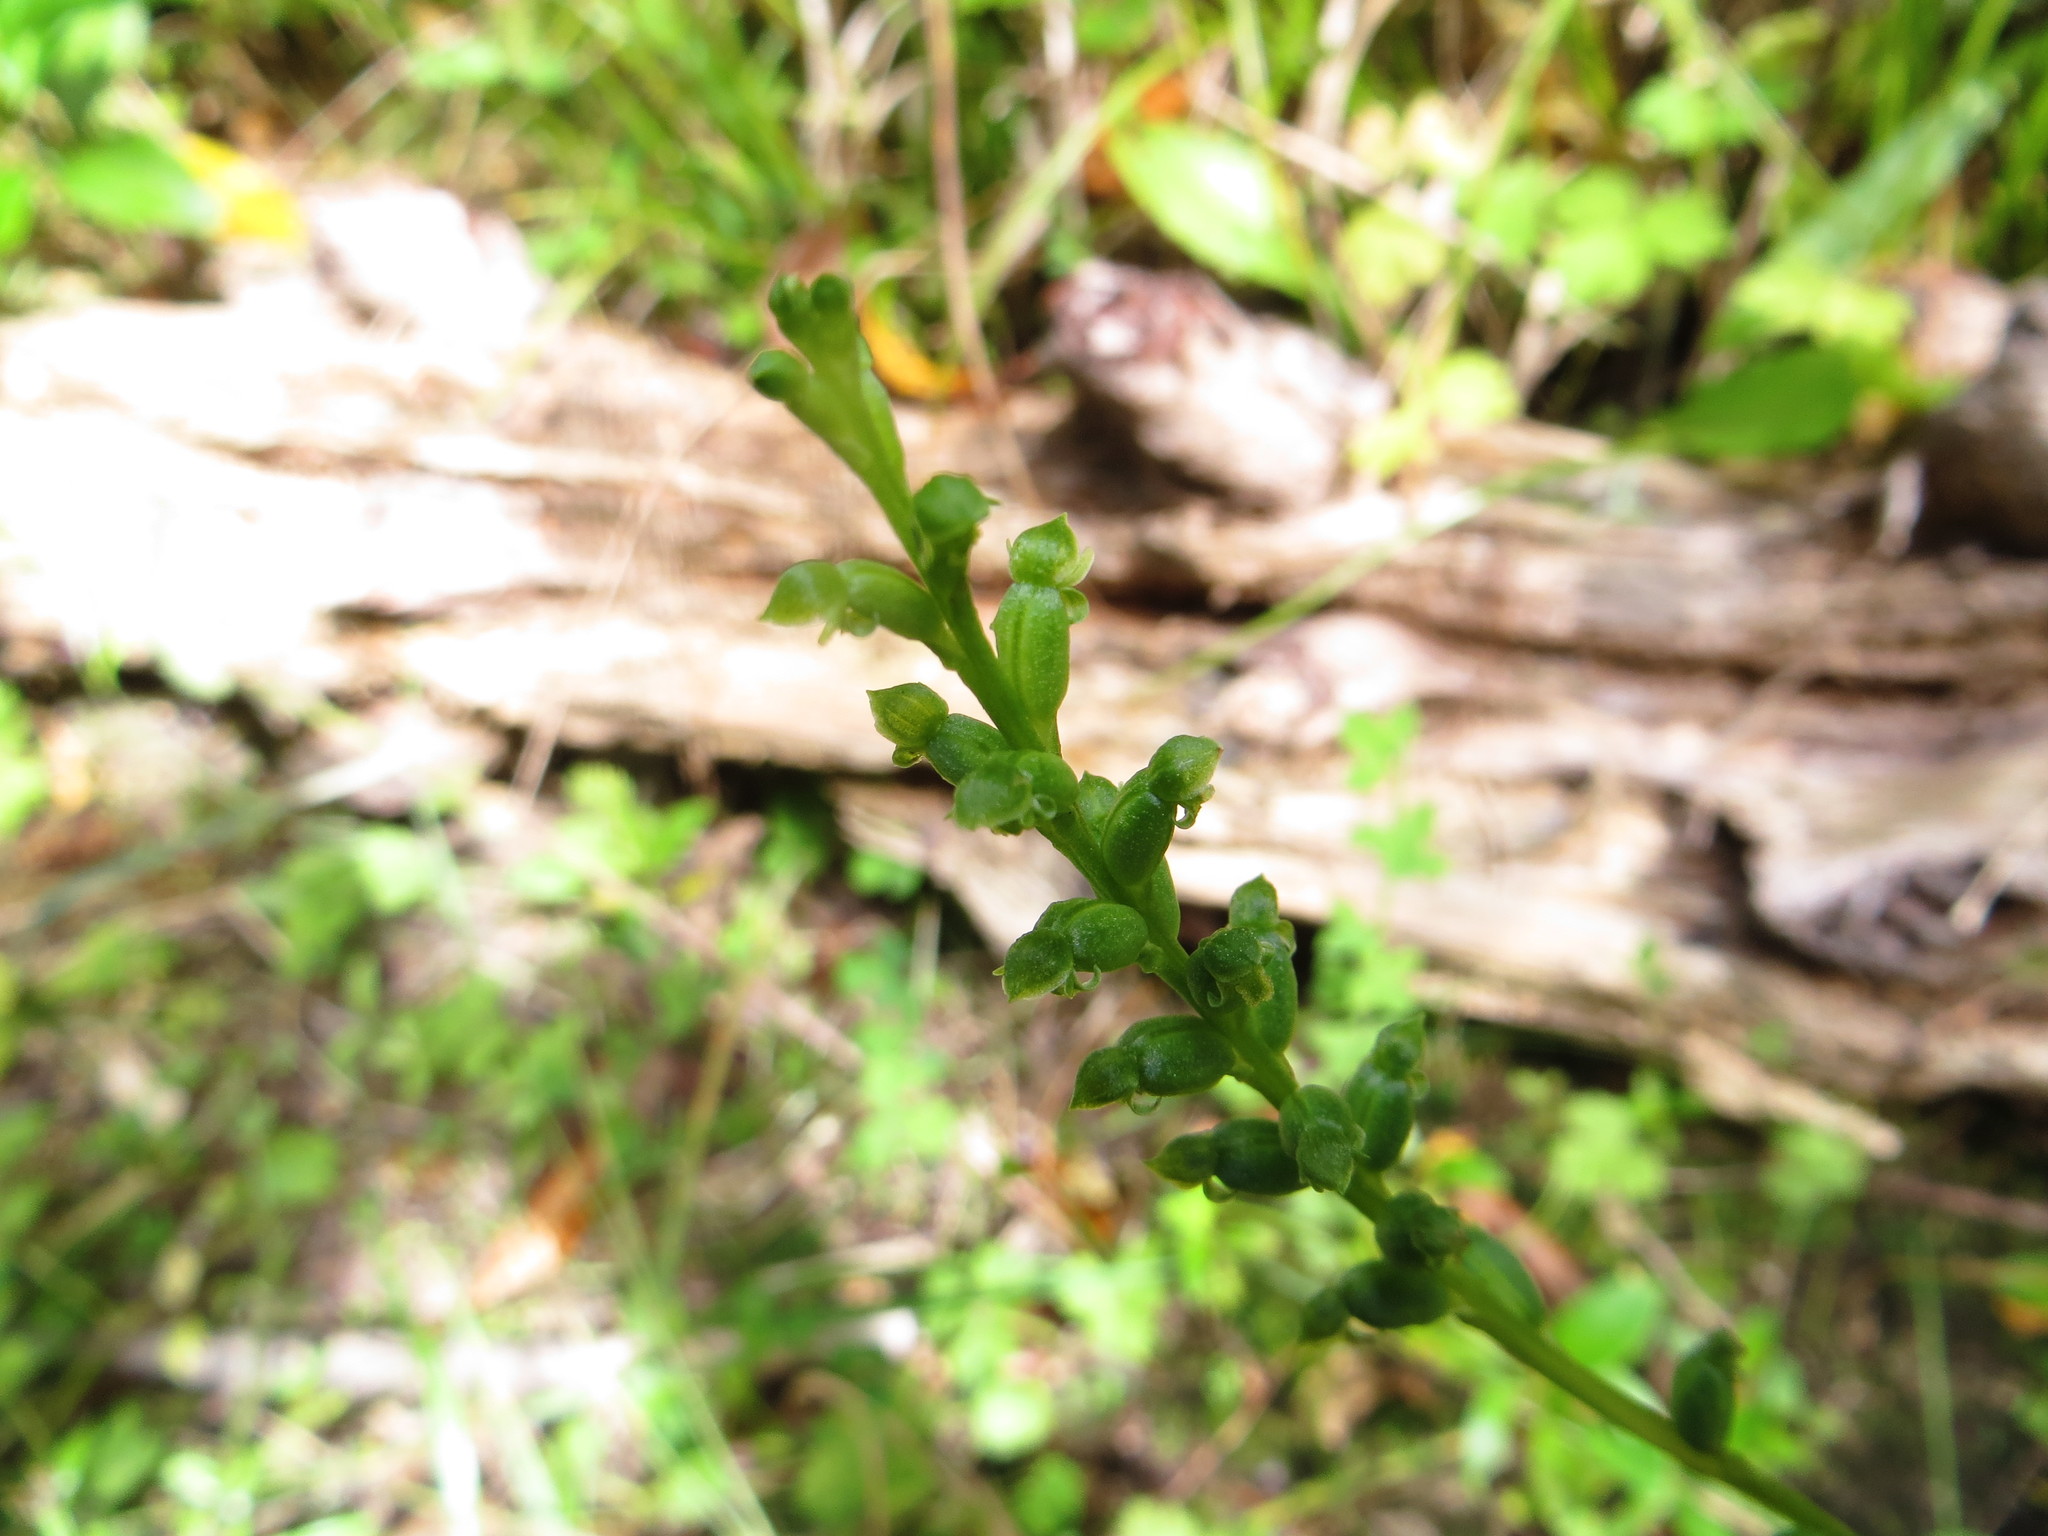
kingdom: Plantae
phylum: Tracheophyta
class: Liliopsida
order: Asparagales
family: Orchidaceae
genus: Microtis
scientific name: Microtis unifolia
